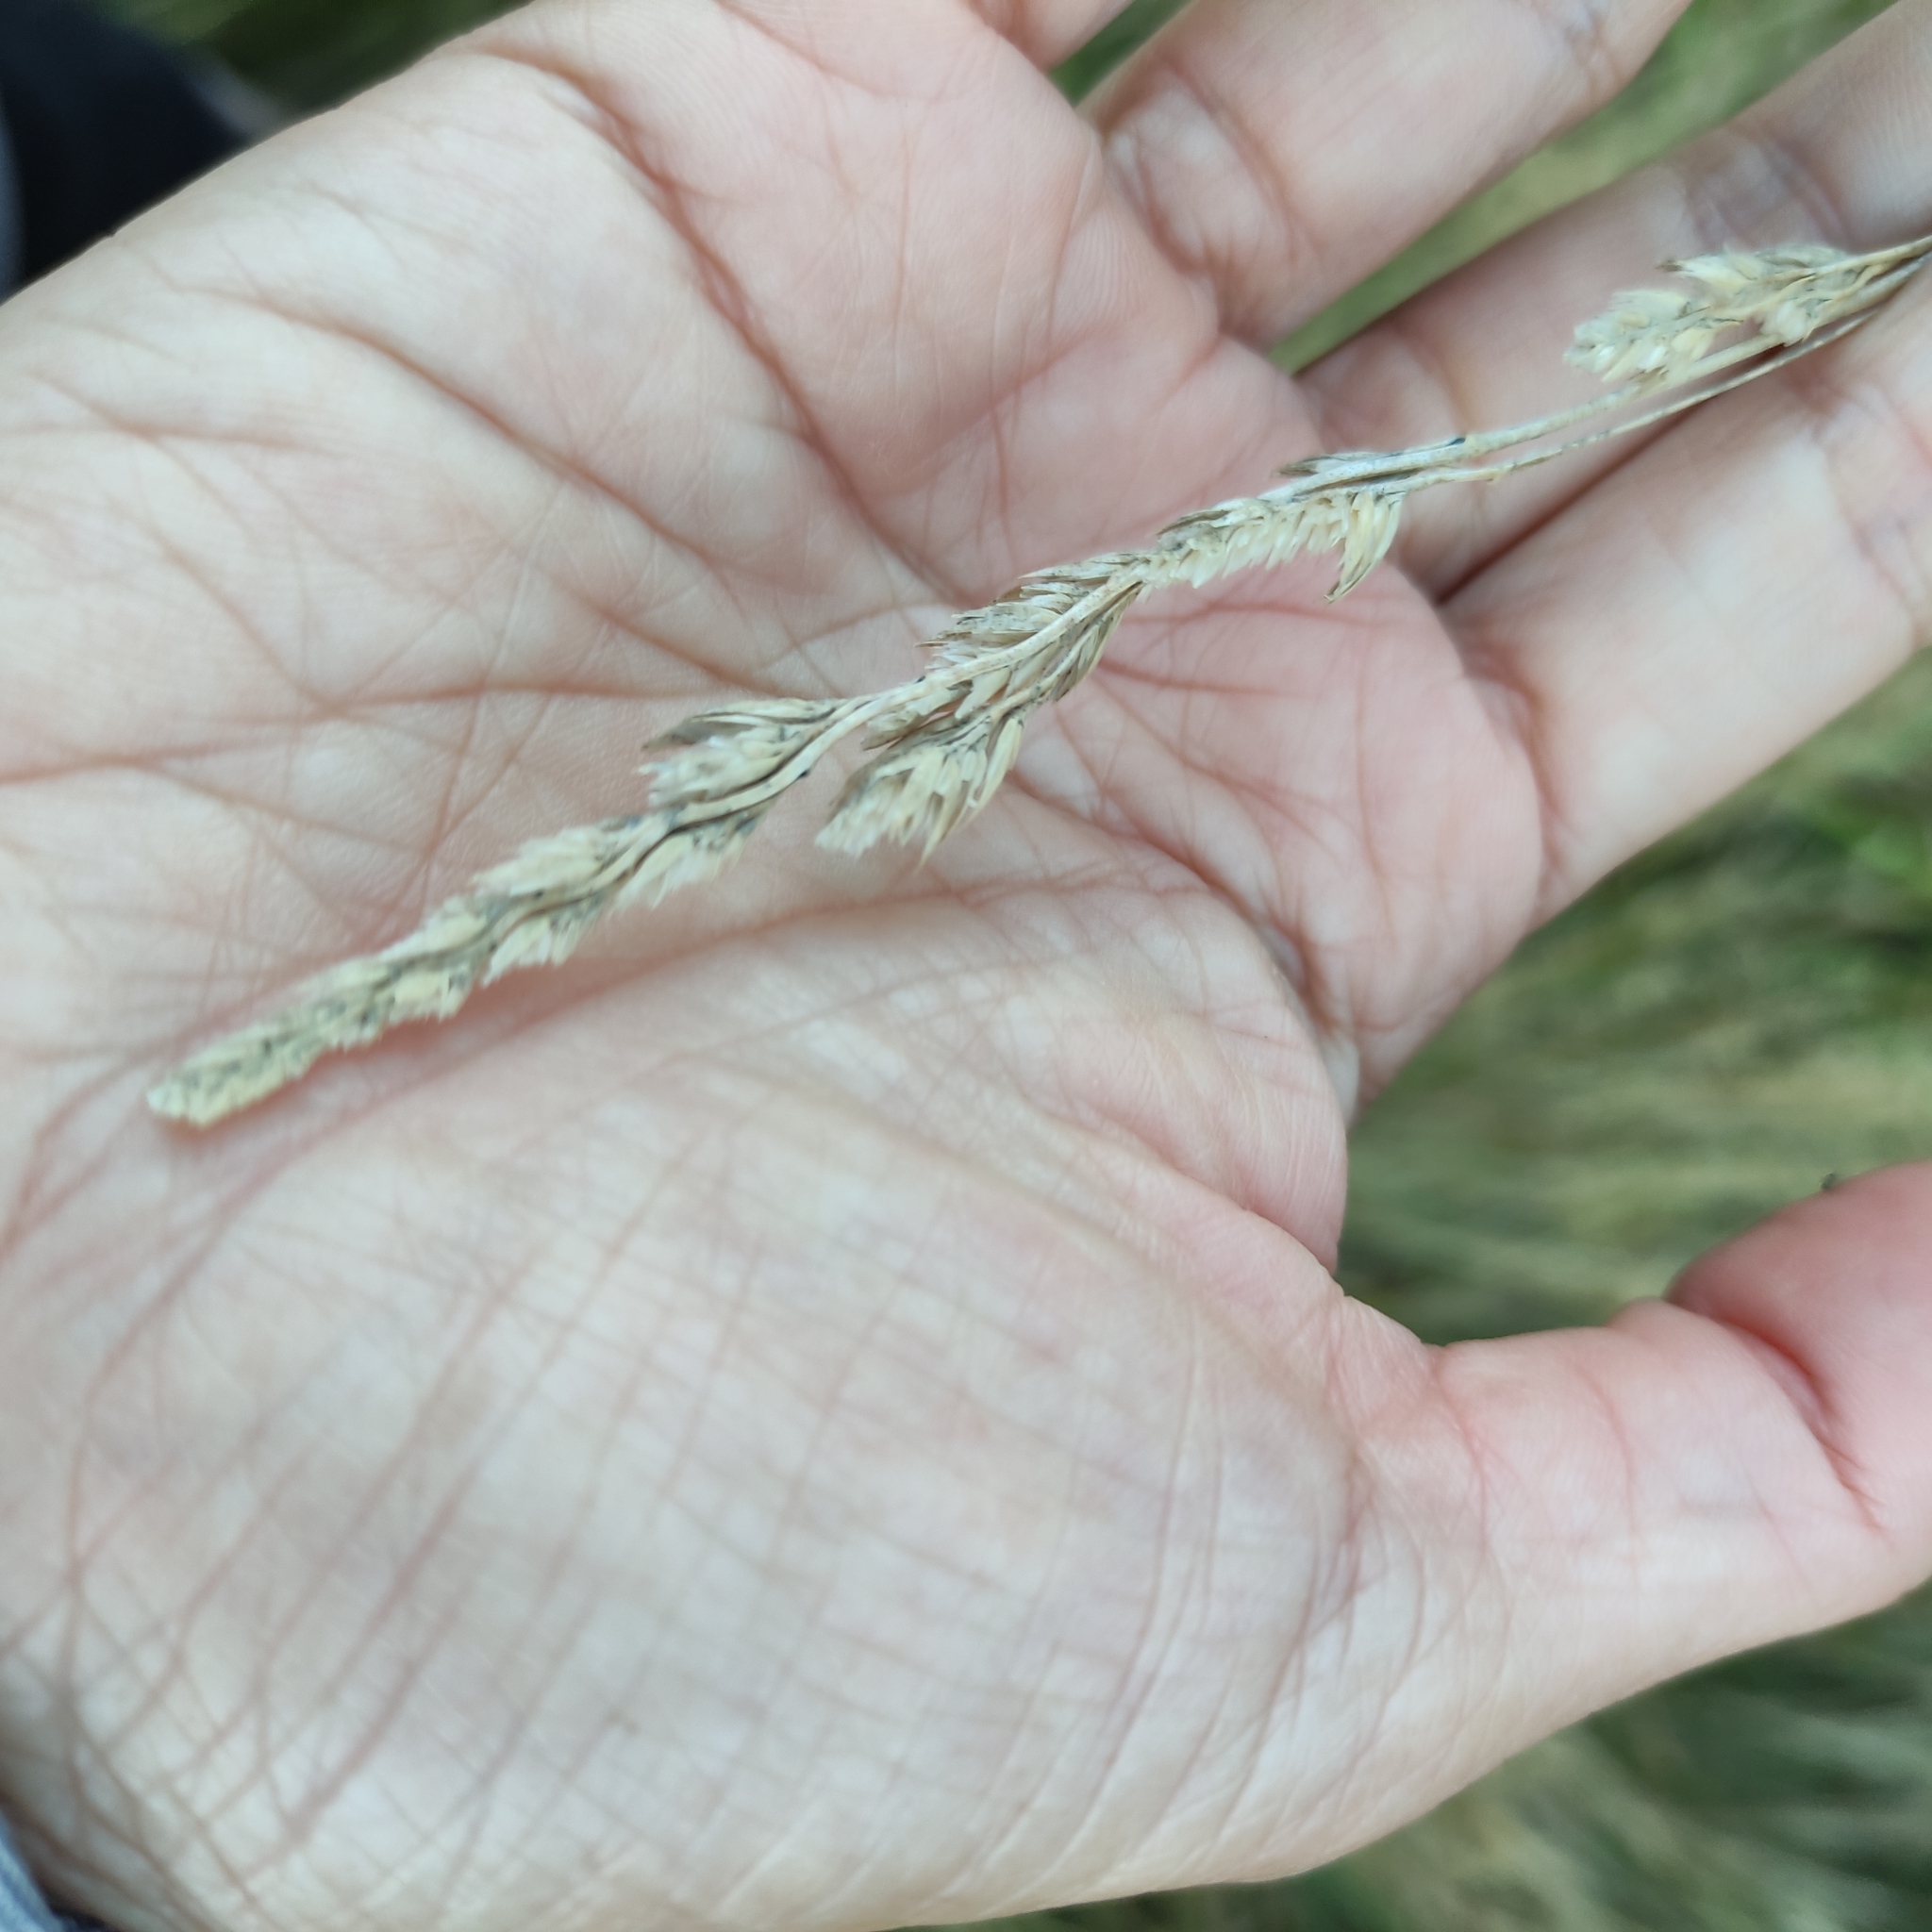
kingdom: Plantae
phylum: Tracheophyta
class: Liliopsida
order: Poales
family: Poaceae
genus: Dactylis
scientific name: Dactylis glomerata
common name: Orchardgrass
